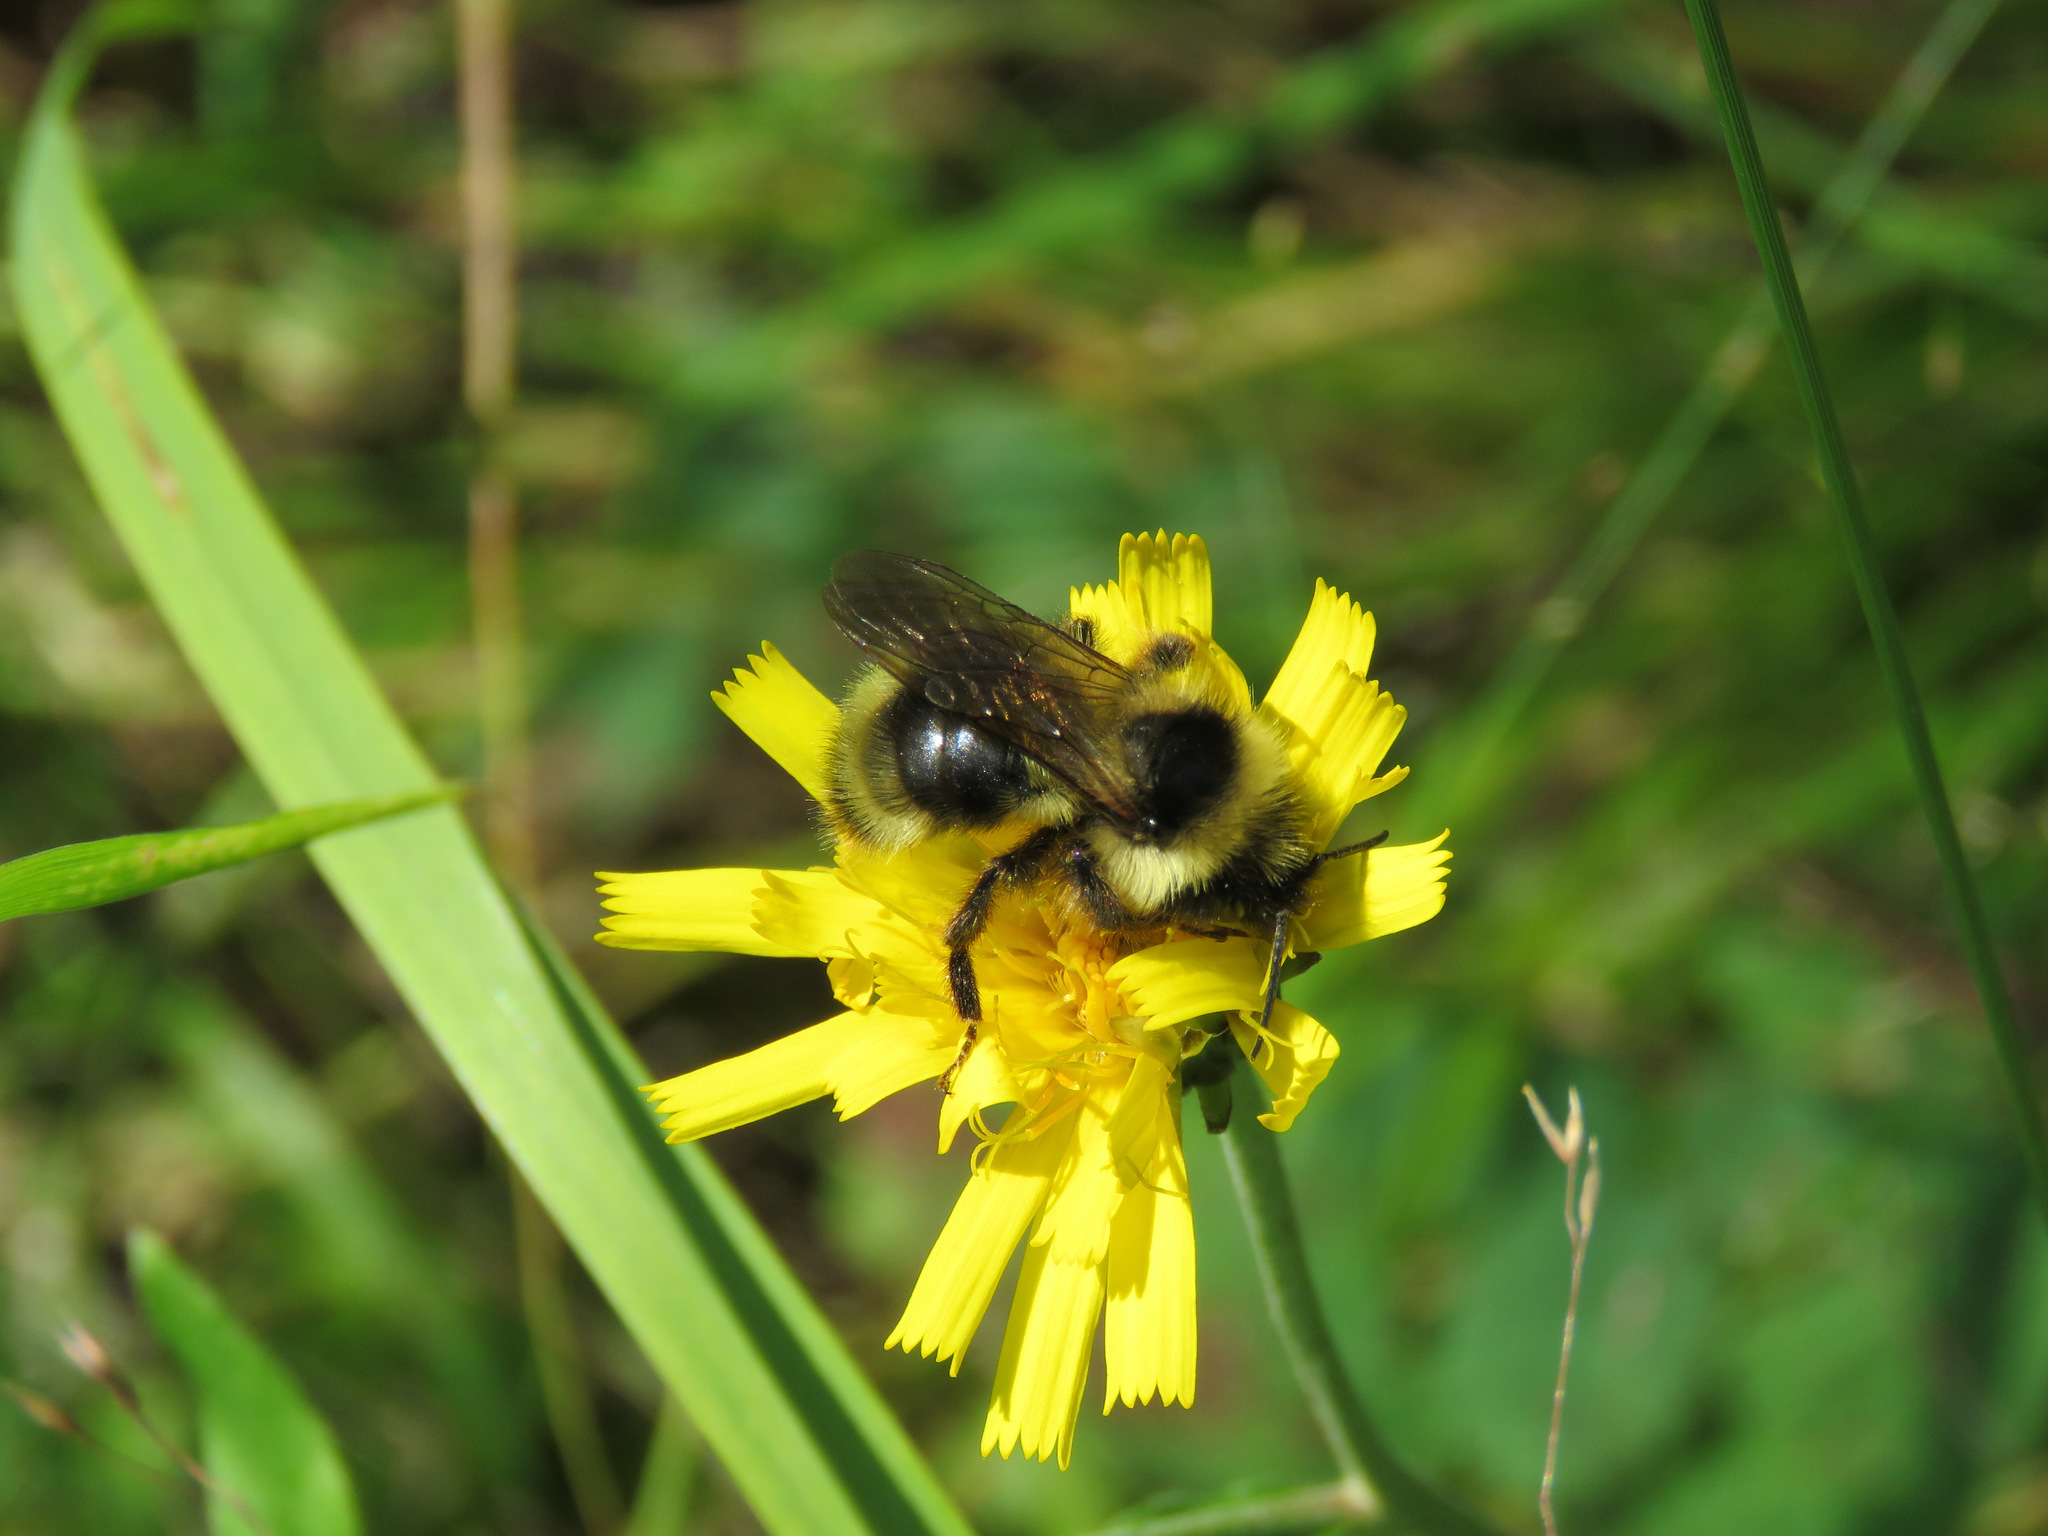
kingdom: Animalia
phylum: Arthropoda
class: Insecta
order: Hymenoptera
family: Apidae
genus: Bombus
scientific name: Bombus flavidus
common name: Fernald cuckoo bumble bee
